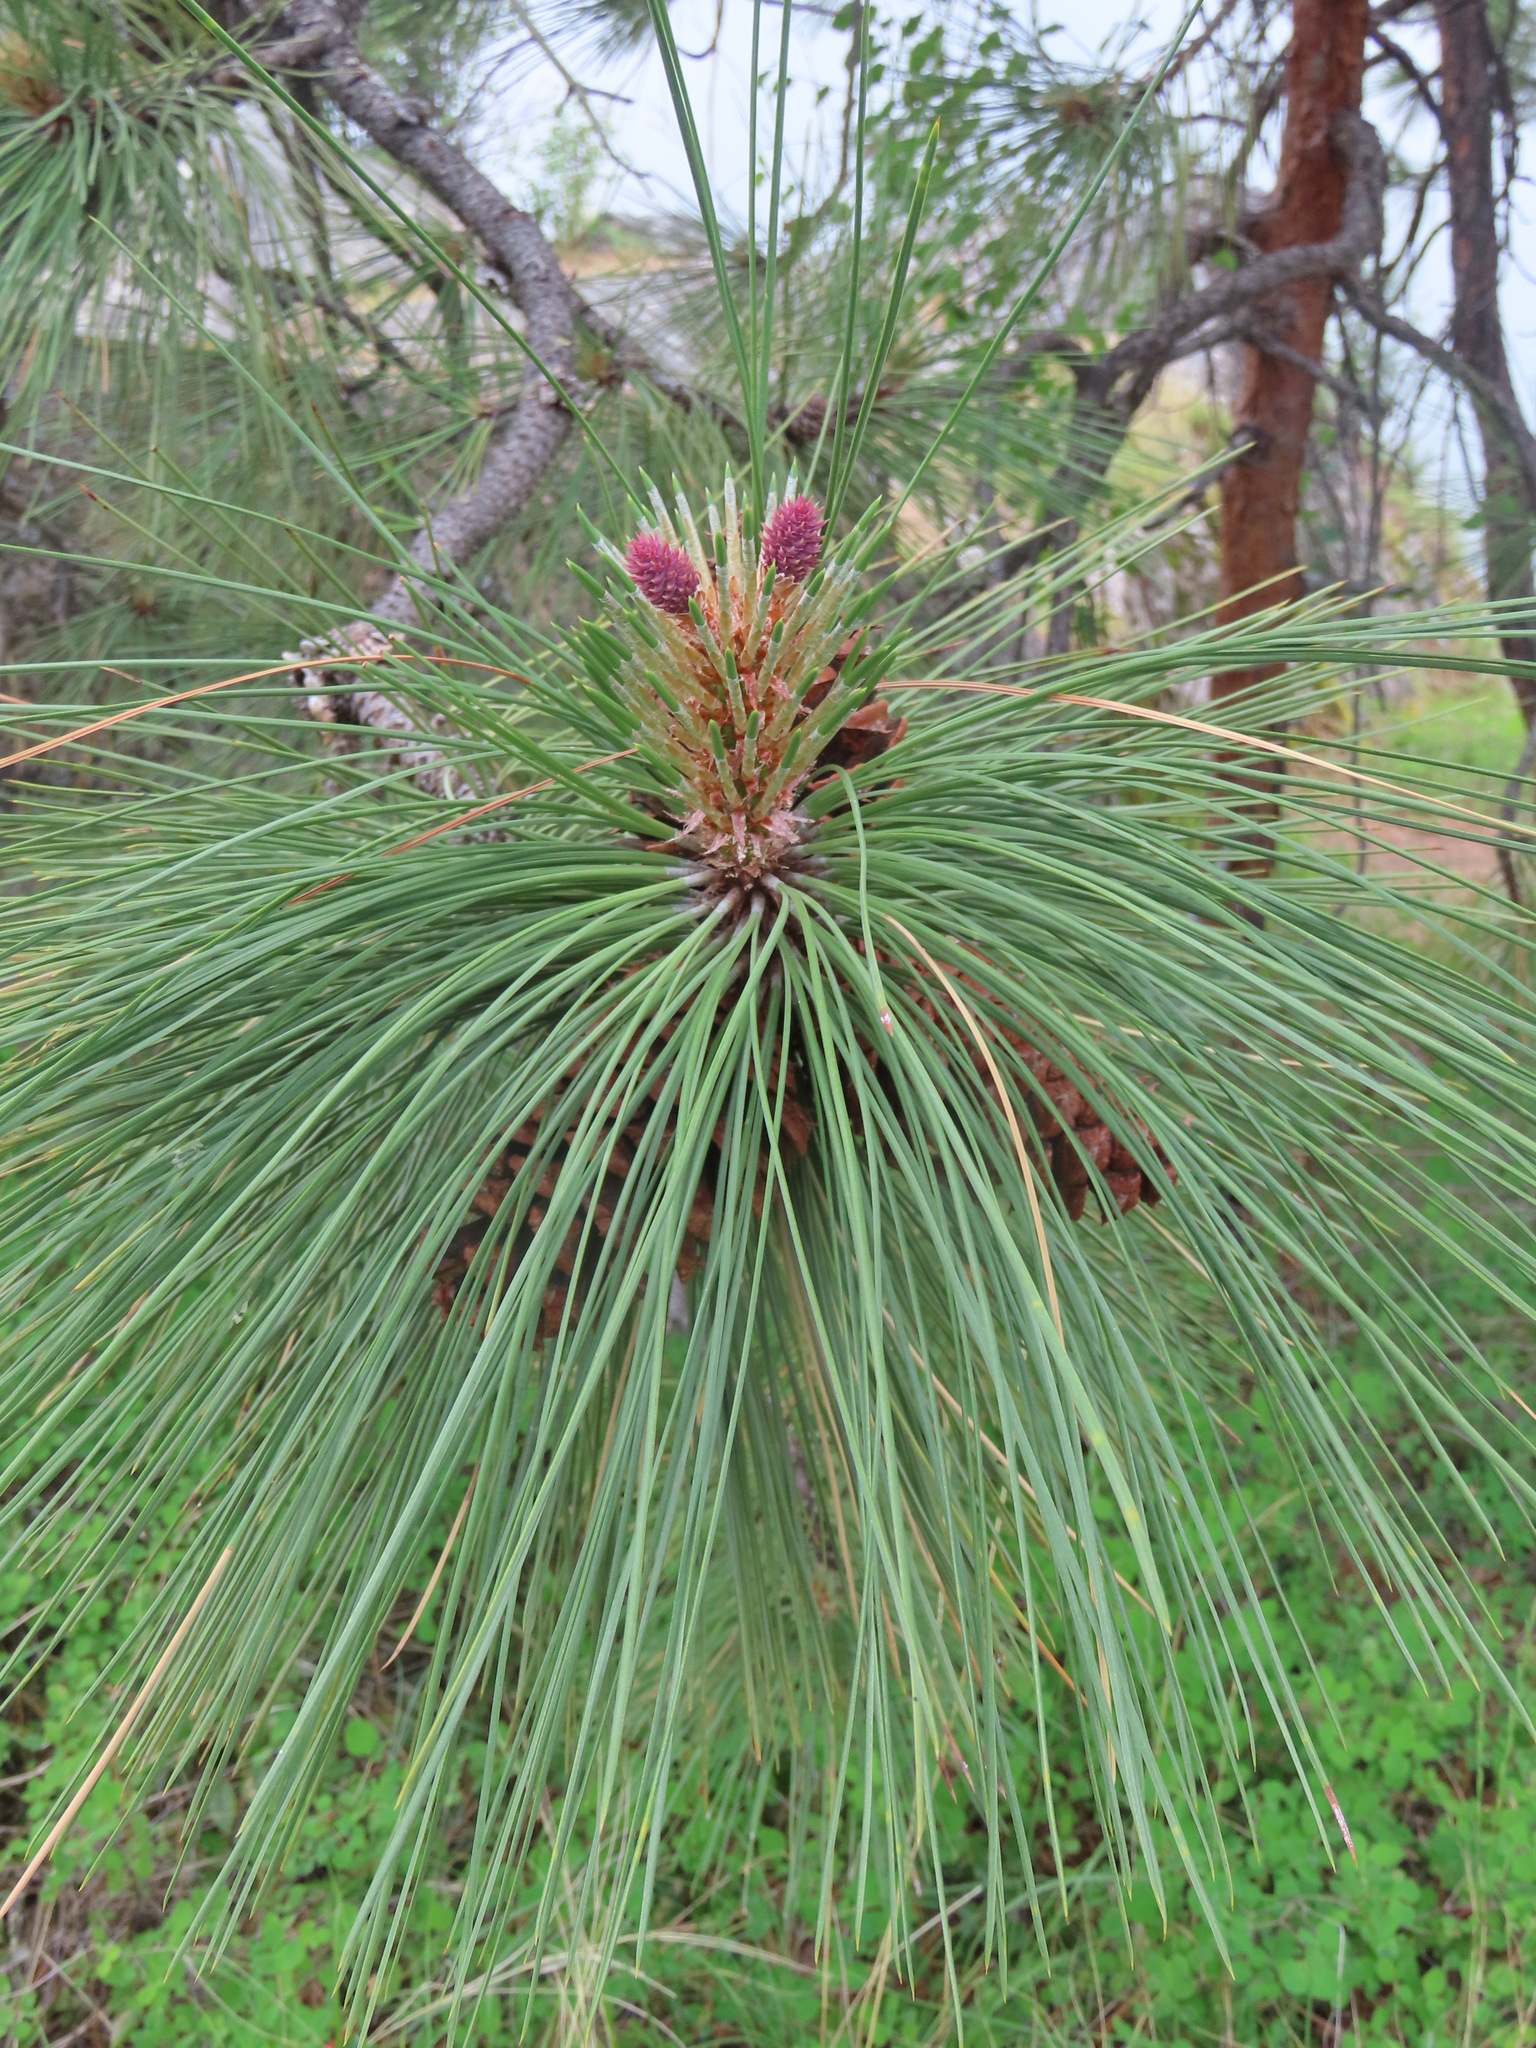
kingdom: Plantae
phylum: Tracheophyta
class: Pinopsida
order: Pinales
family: Pinaceae
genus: Pinus
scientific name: Pinus ponderosa
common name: Western yellow-pine
